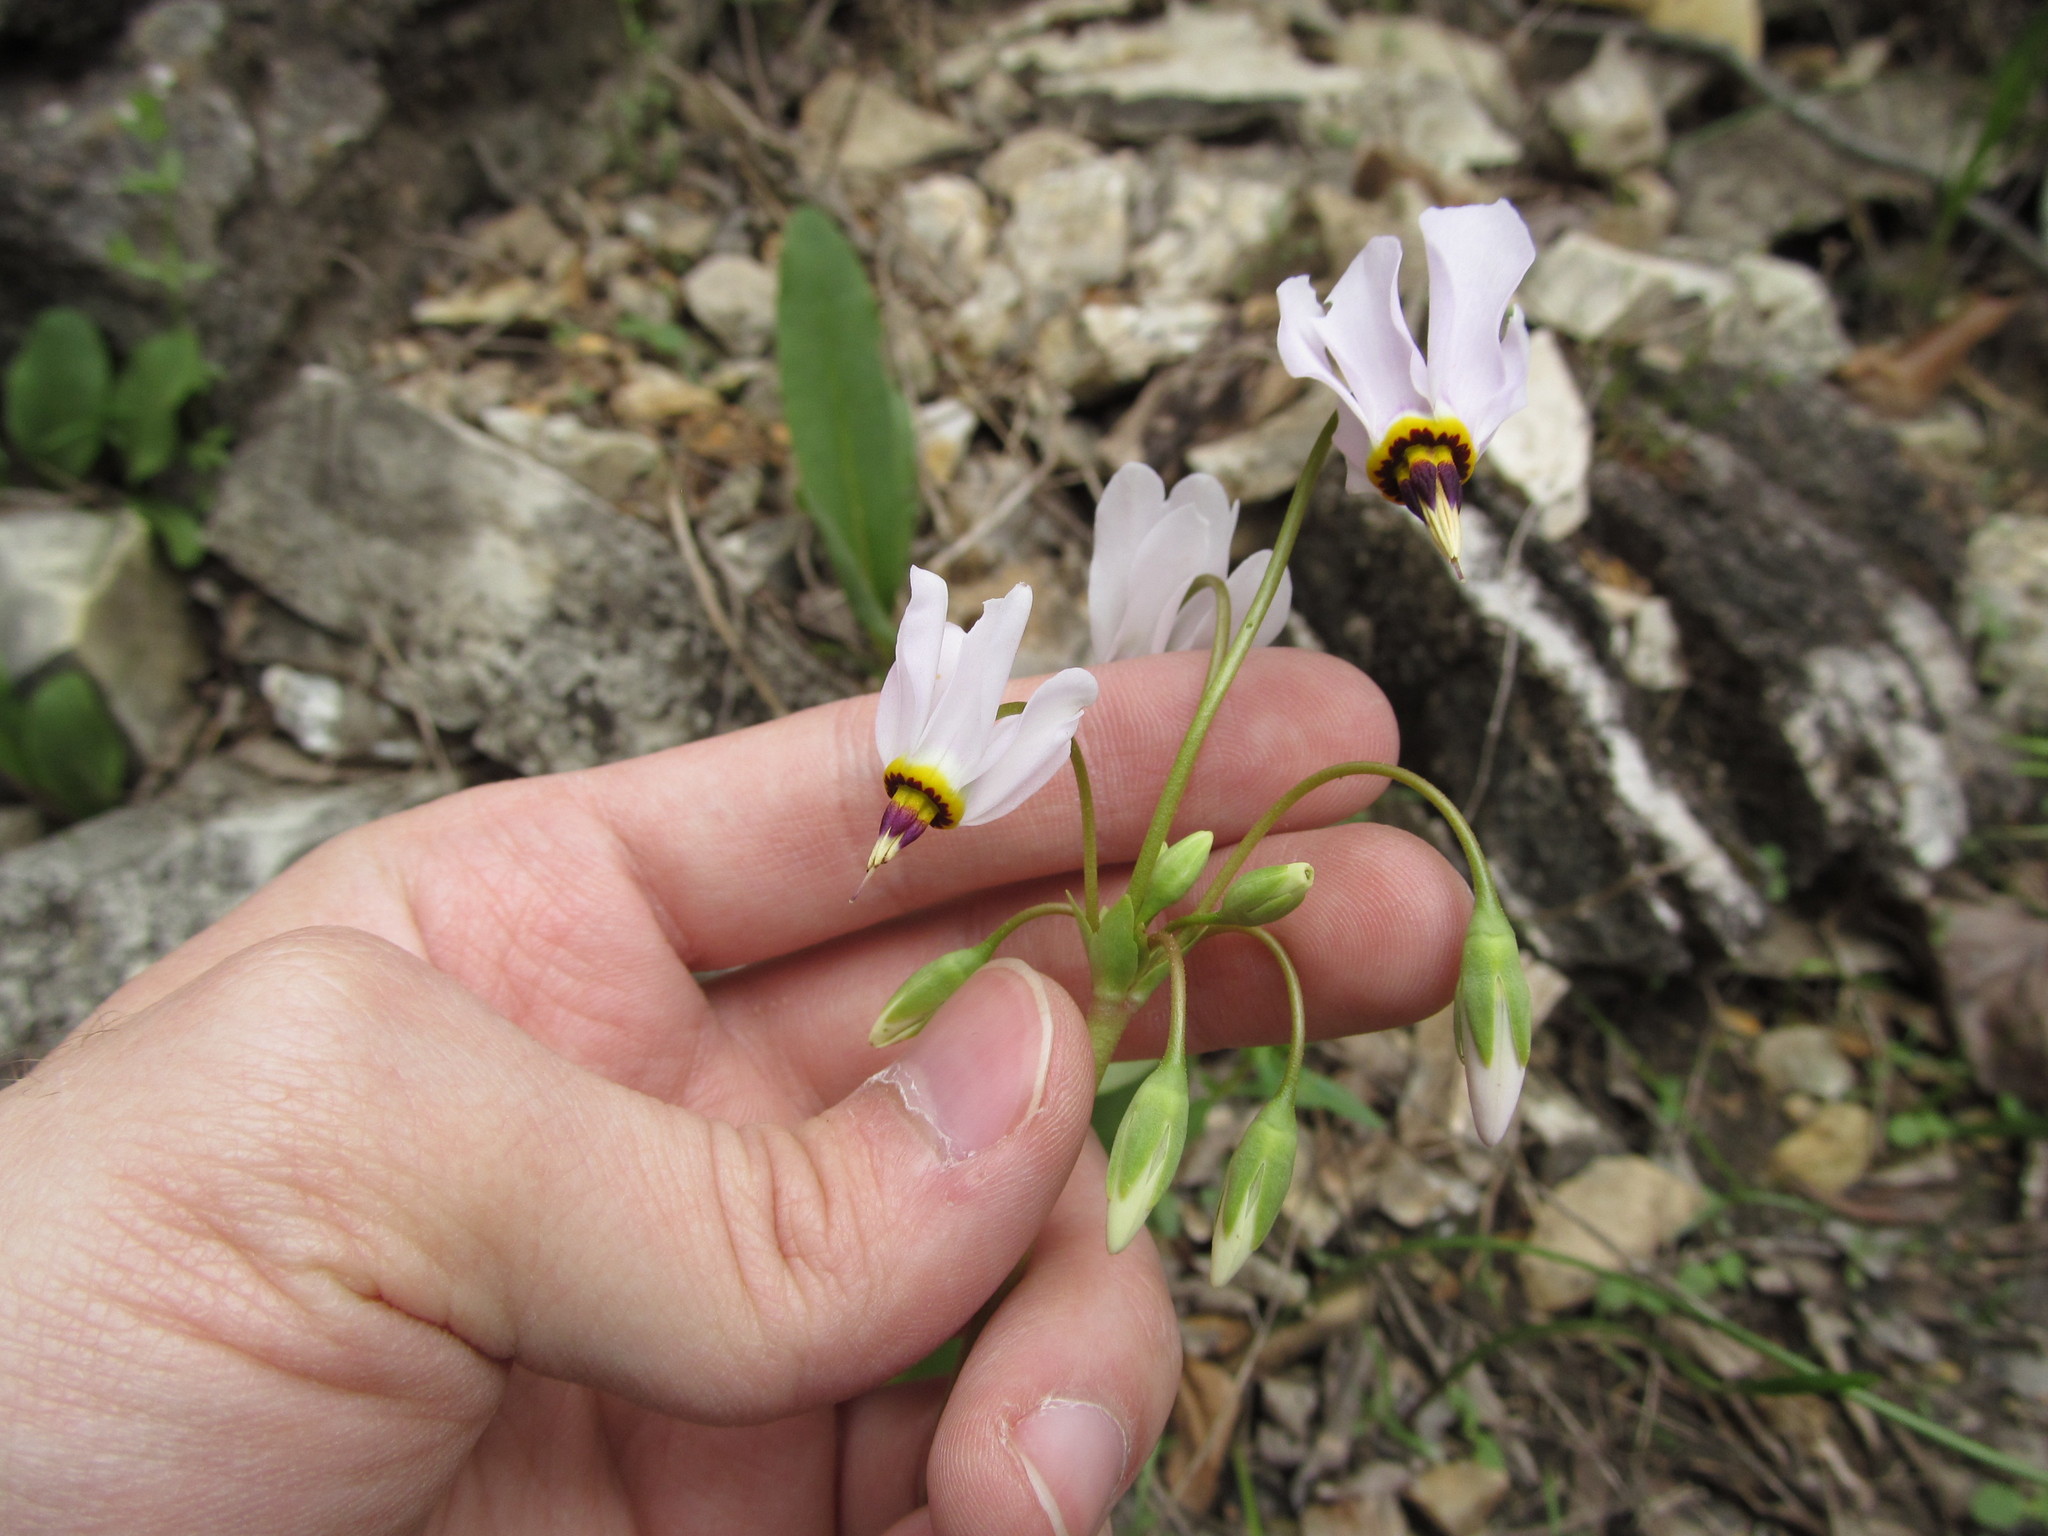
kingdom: Plantae
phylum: Tracheophyta
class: Magnoliopsida
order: Ericales
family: Primulaceae
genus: Dodecatheon
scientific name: Dodecatheon meadia
